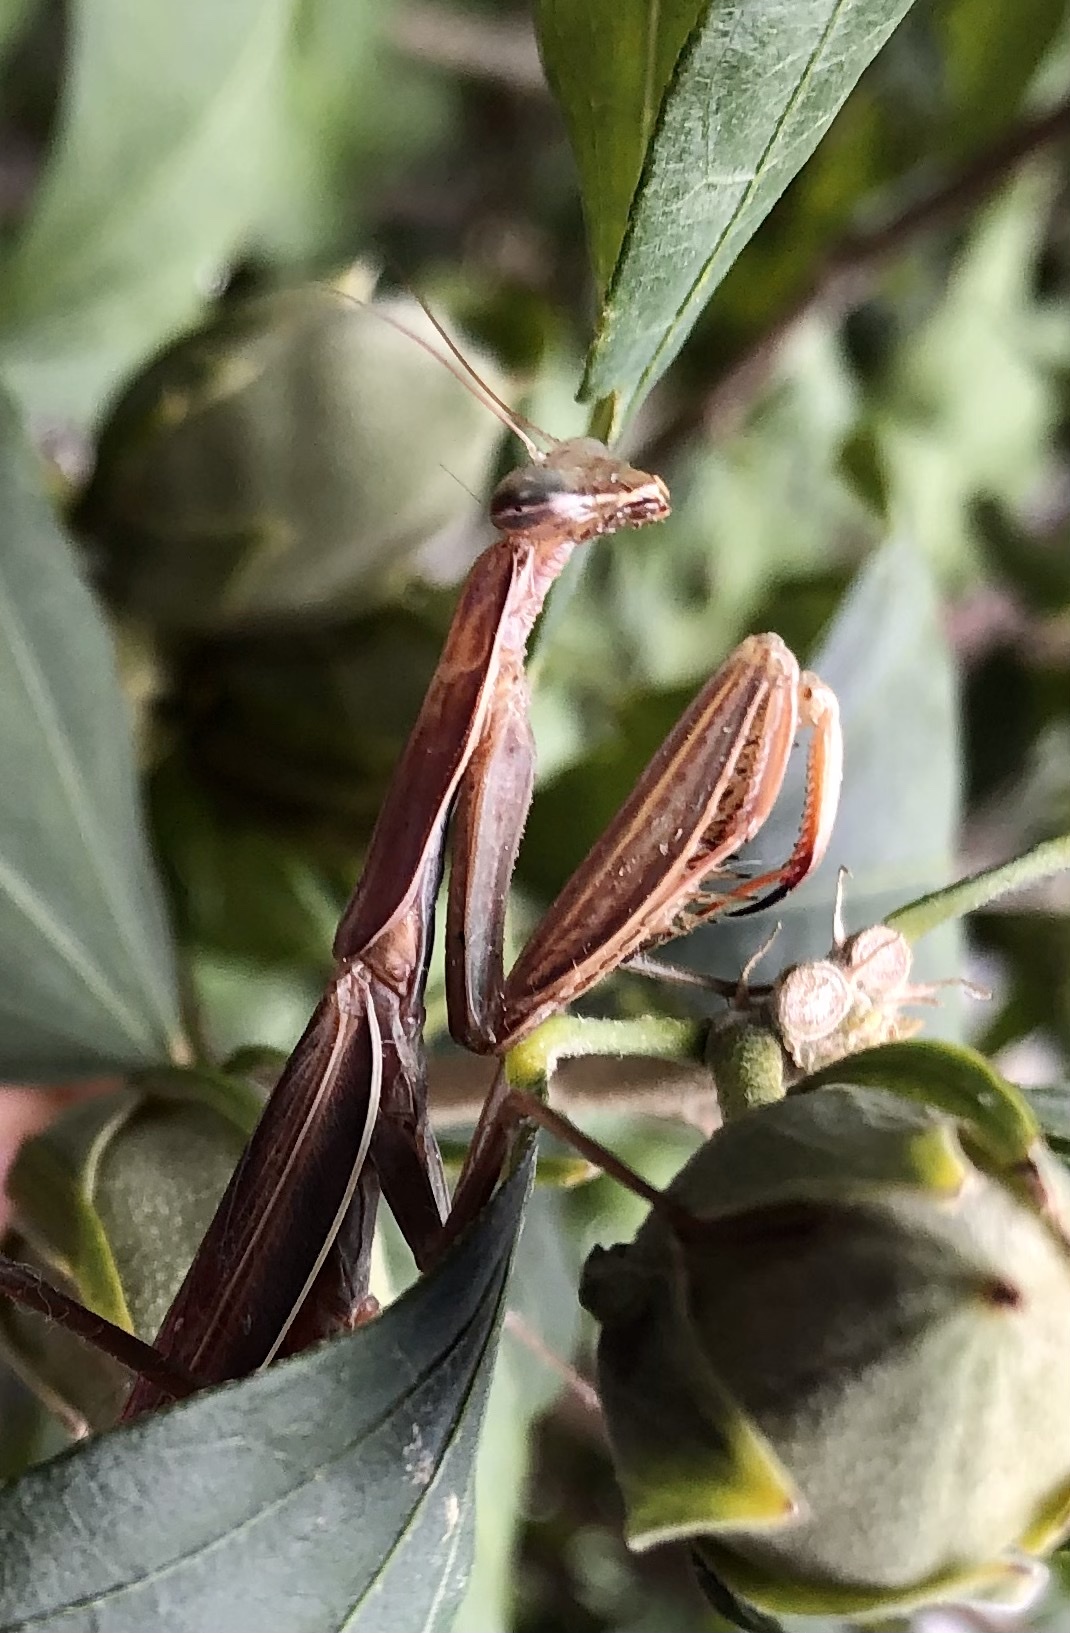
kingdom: Animalia
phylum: Arthropoda
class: Insecta
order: Mantodea
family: Mantidae
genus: Mantis
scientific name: Mantis religiosa
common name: Praying mantis
